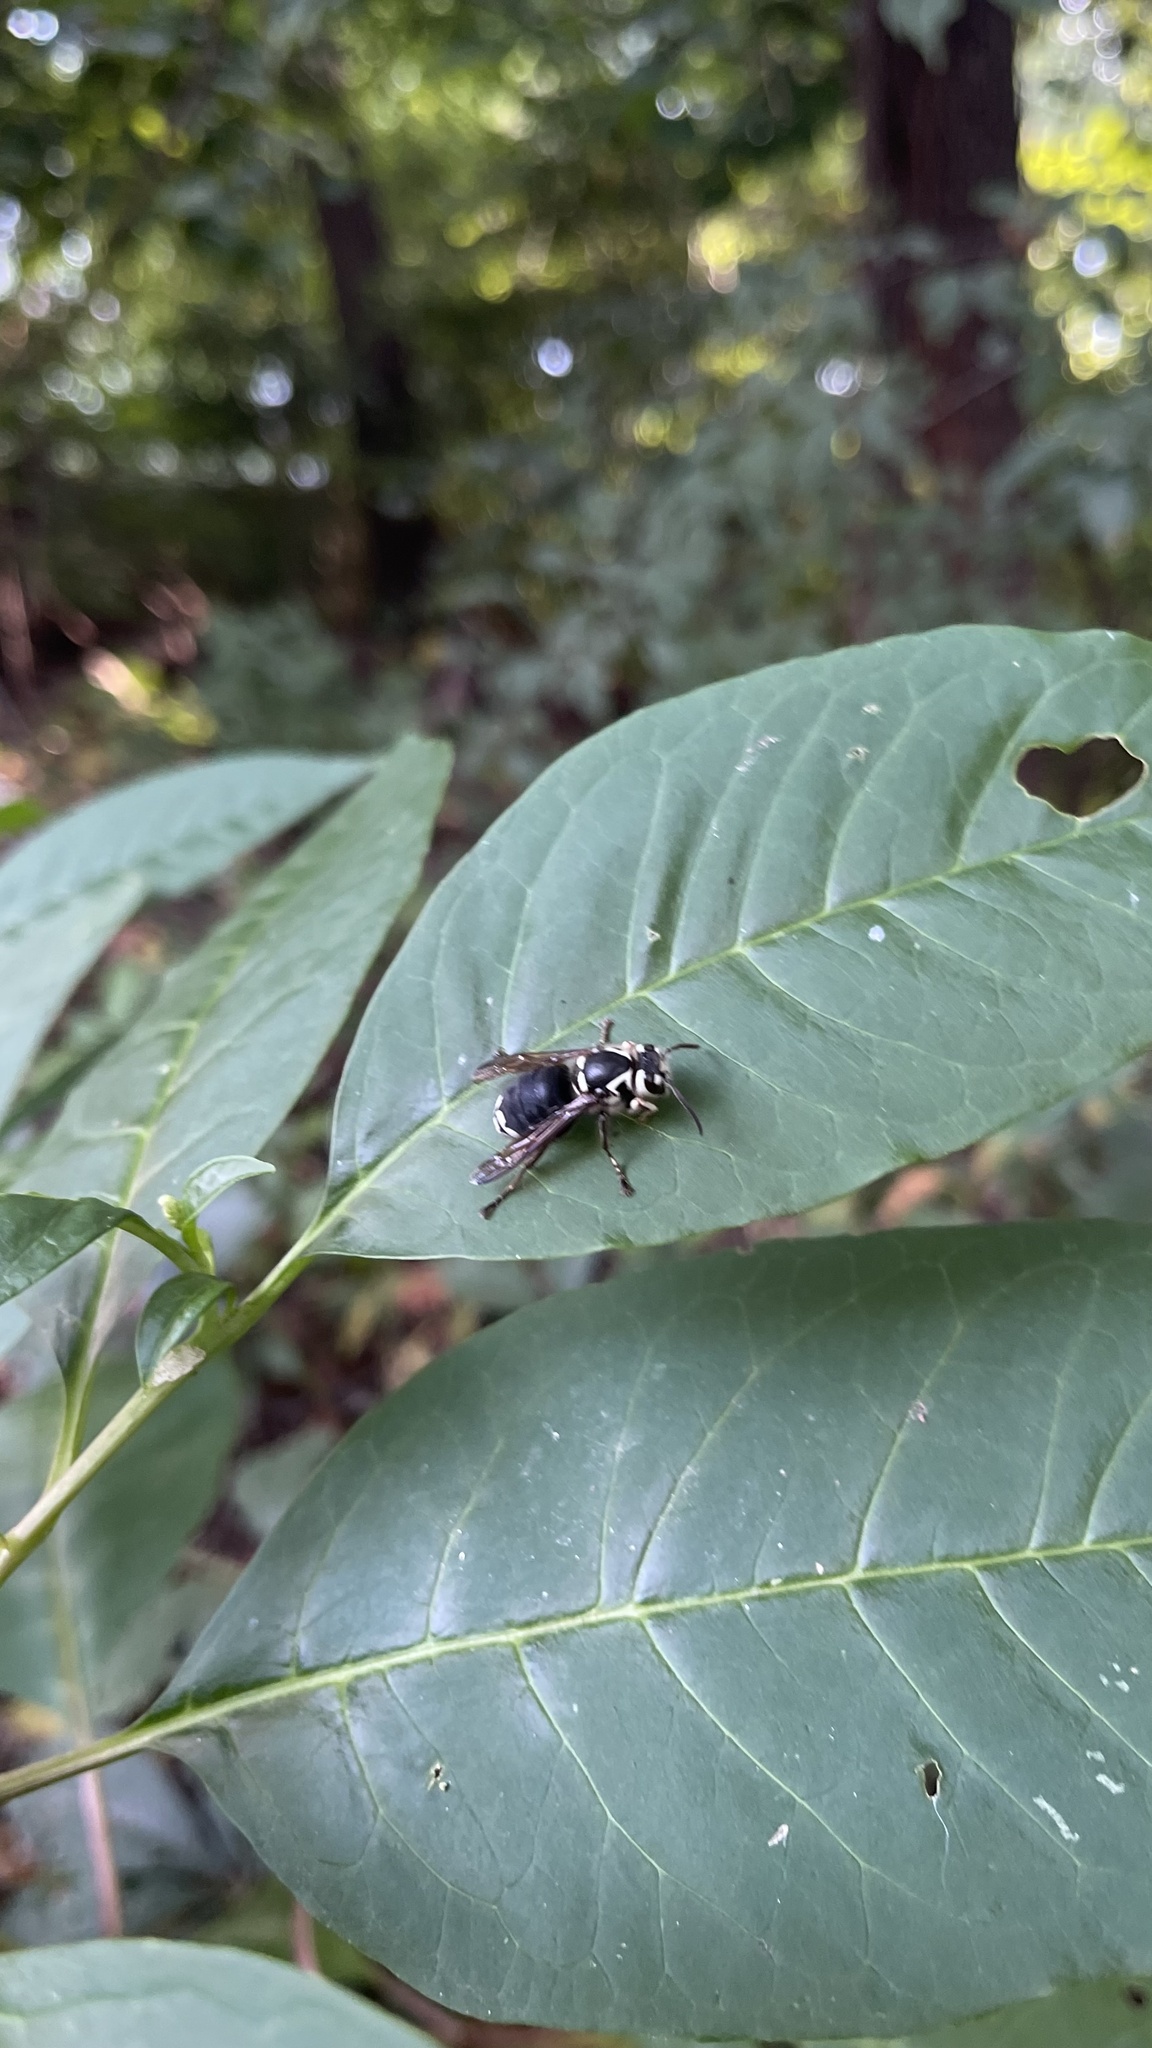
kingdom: Animalia
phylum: Arthropoda
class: Insecta
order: Hymenoptera
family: Vespidae
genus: Dolichovespula
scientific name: Dolichovespula maculata
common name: Bald-faced hornet
